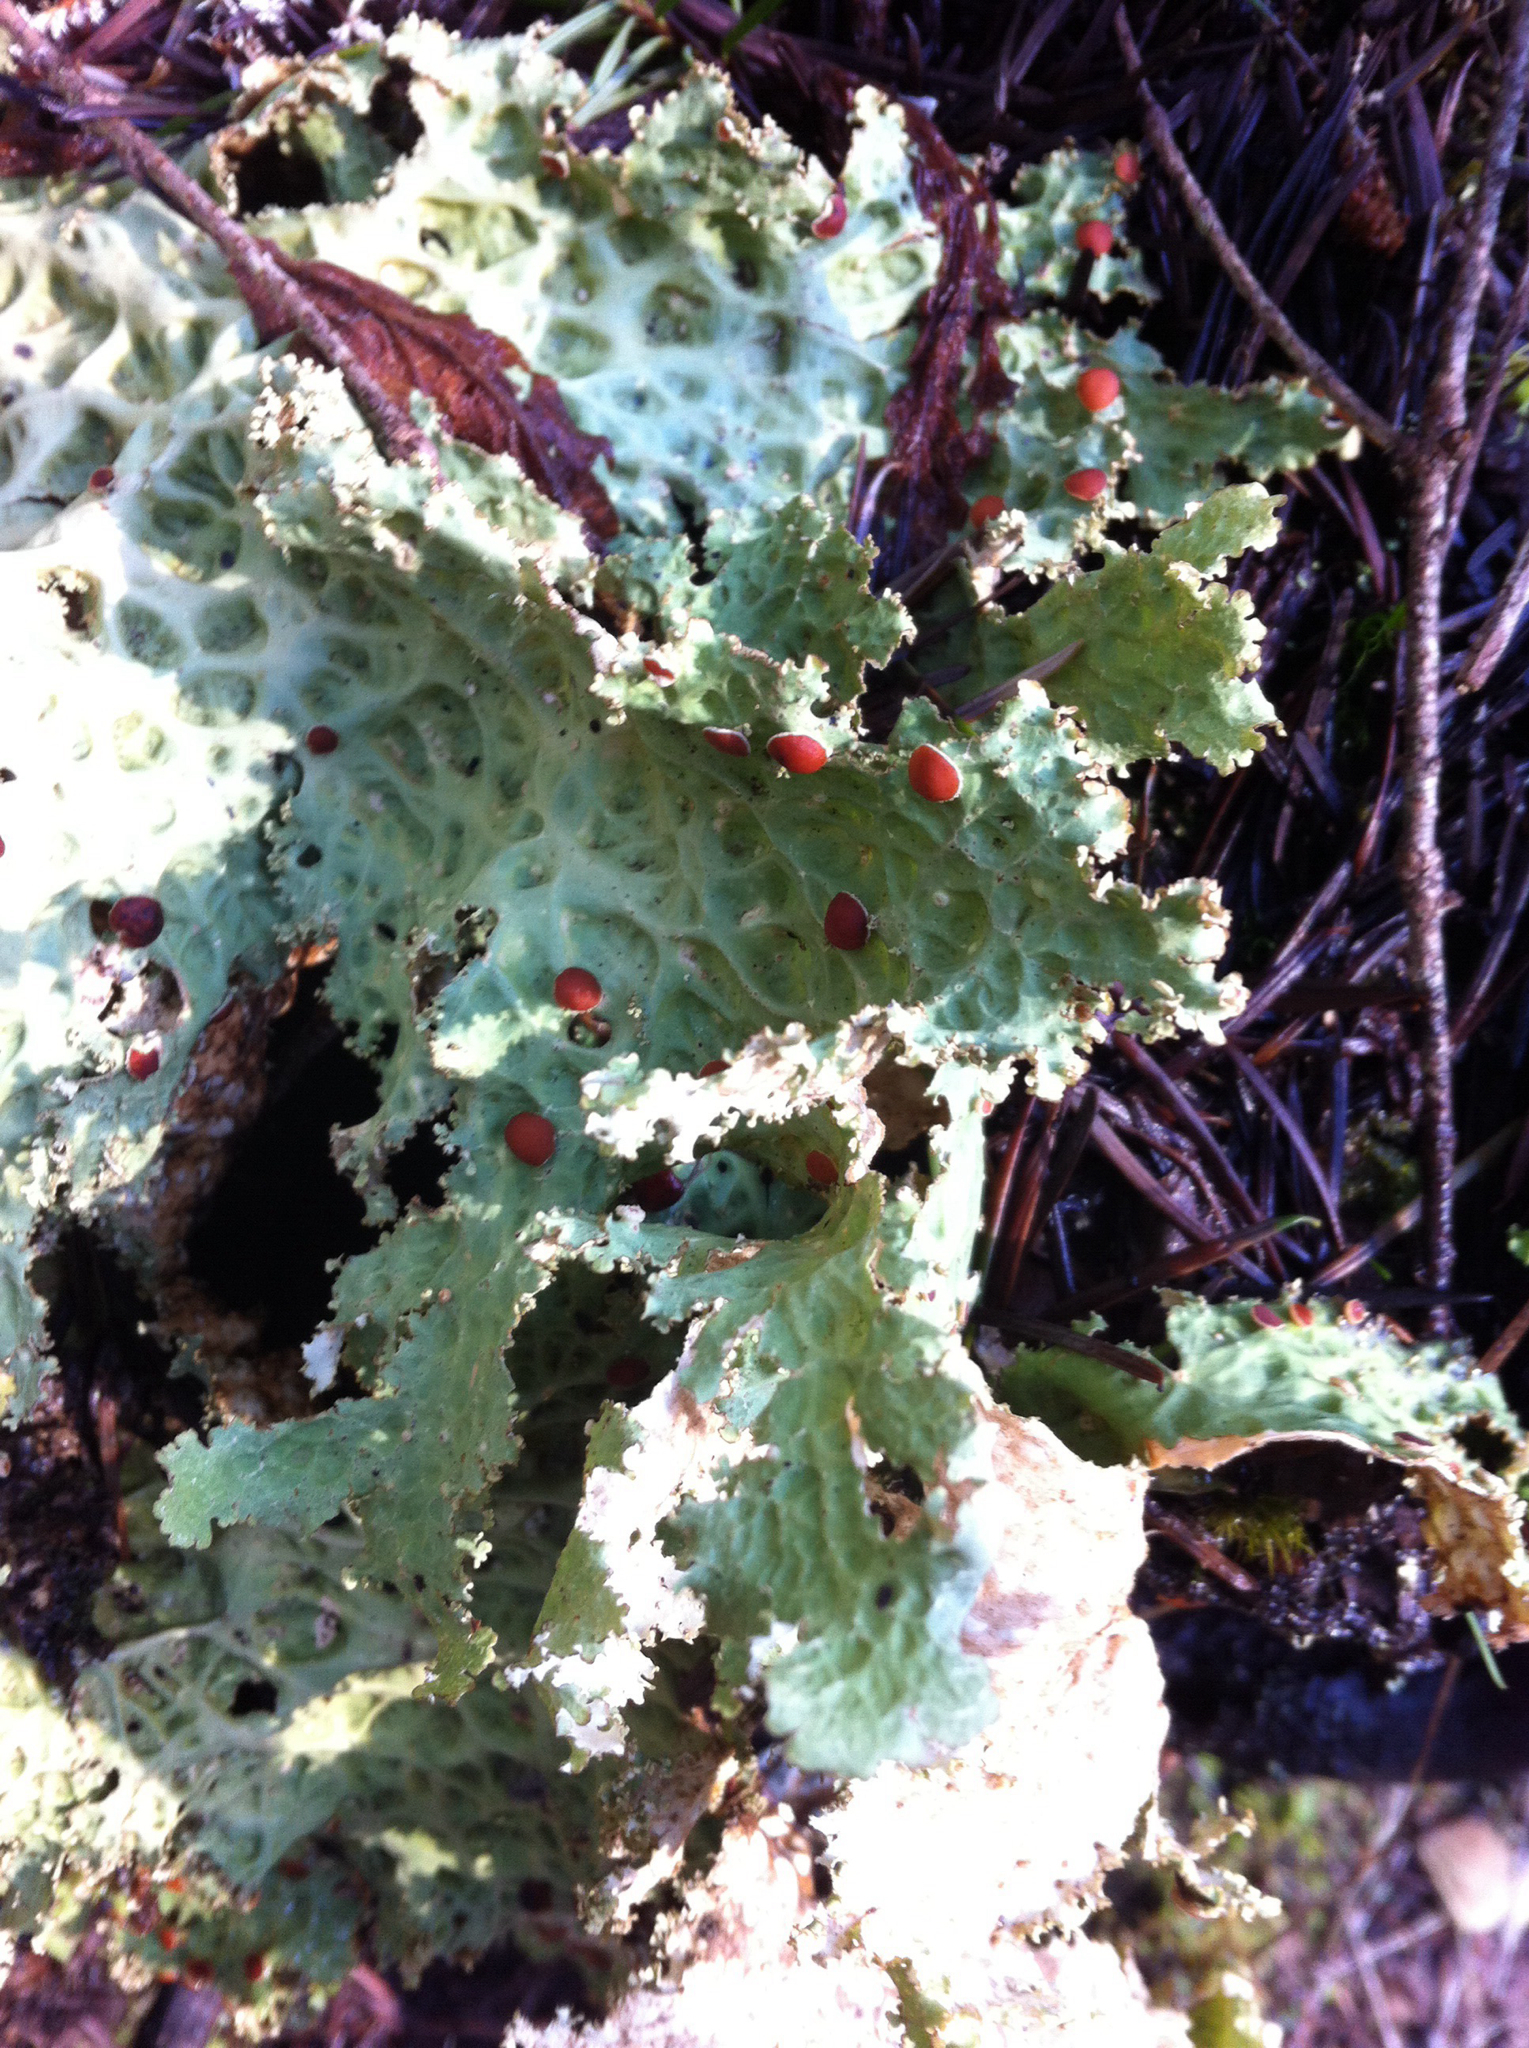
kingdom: Fungi
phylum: Ascomycota
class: Lecanoromycetes
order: Peltigerales
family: Lobariaceae
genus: Lobaria
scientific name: Lobaria oregana
